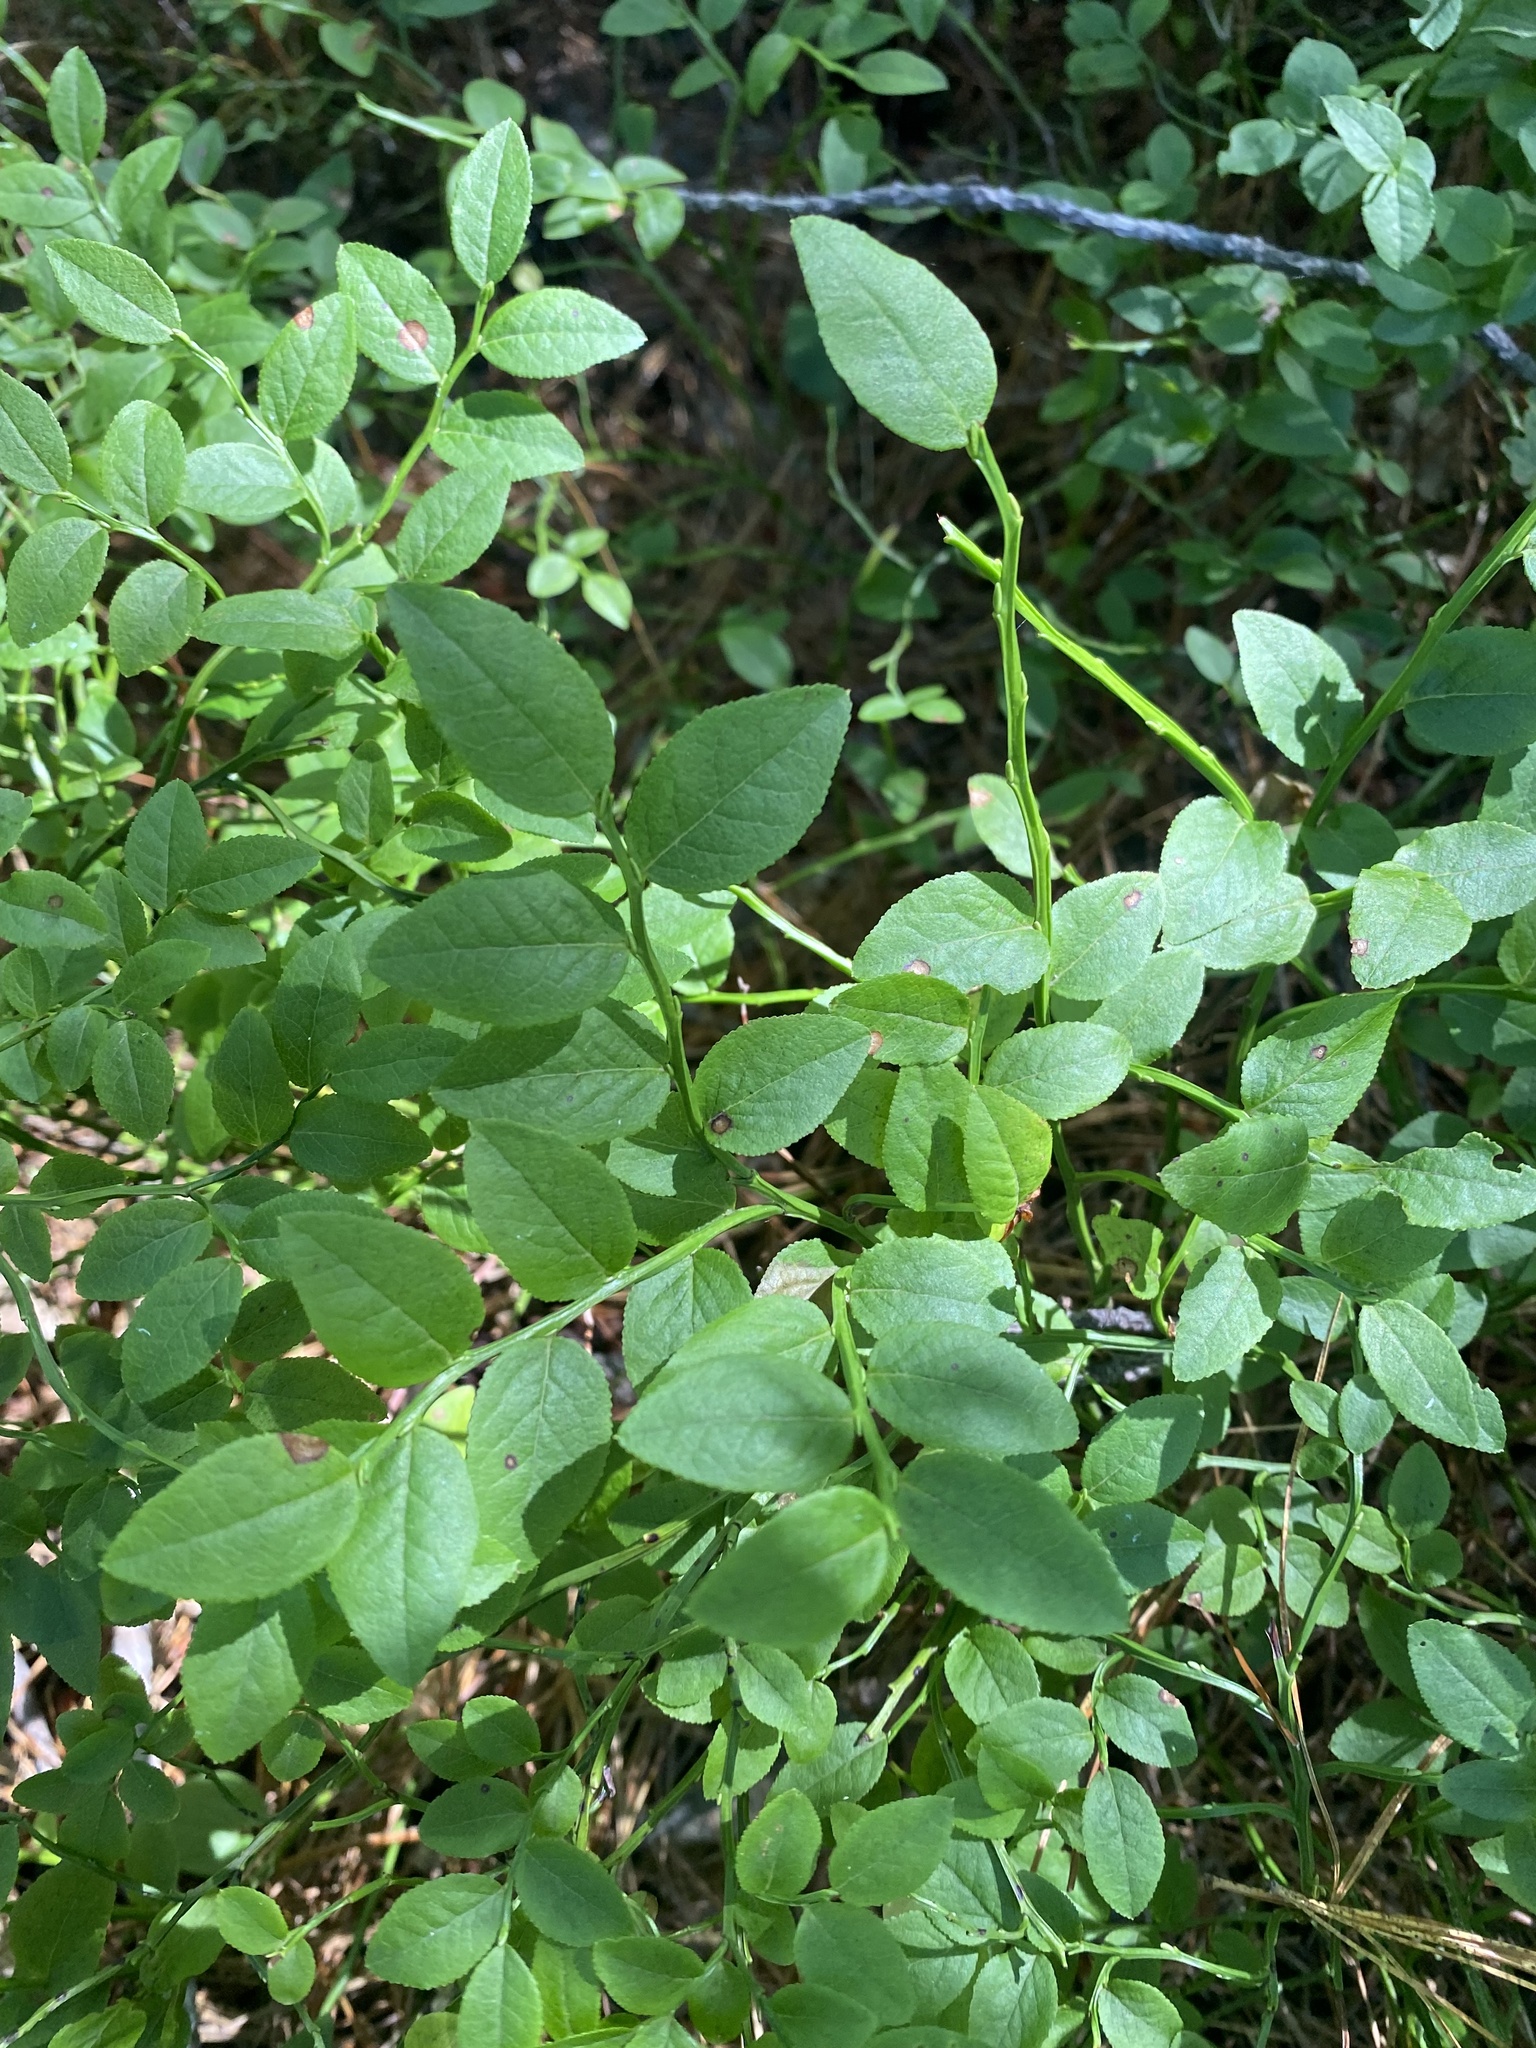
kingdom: Plantae
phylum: Tracheophyta
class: Magnoliopsida
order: Ericales
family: Ericaceae
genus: Vaccinium
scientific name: Vaccinium myrtillus
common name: Bilberry
